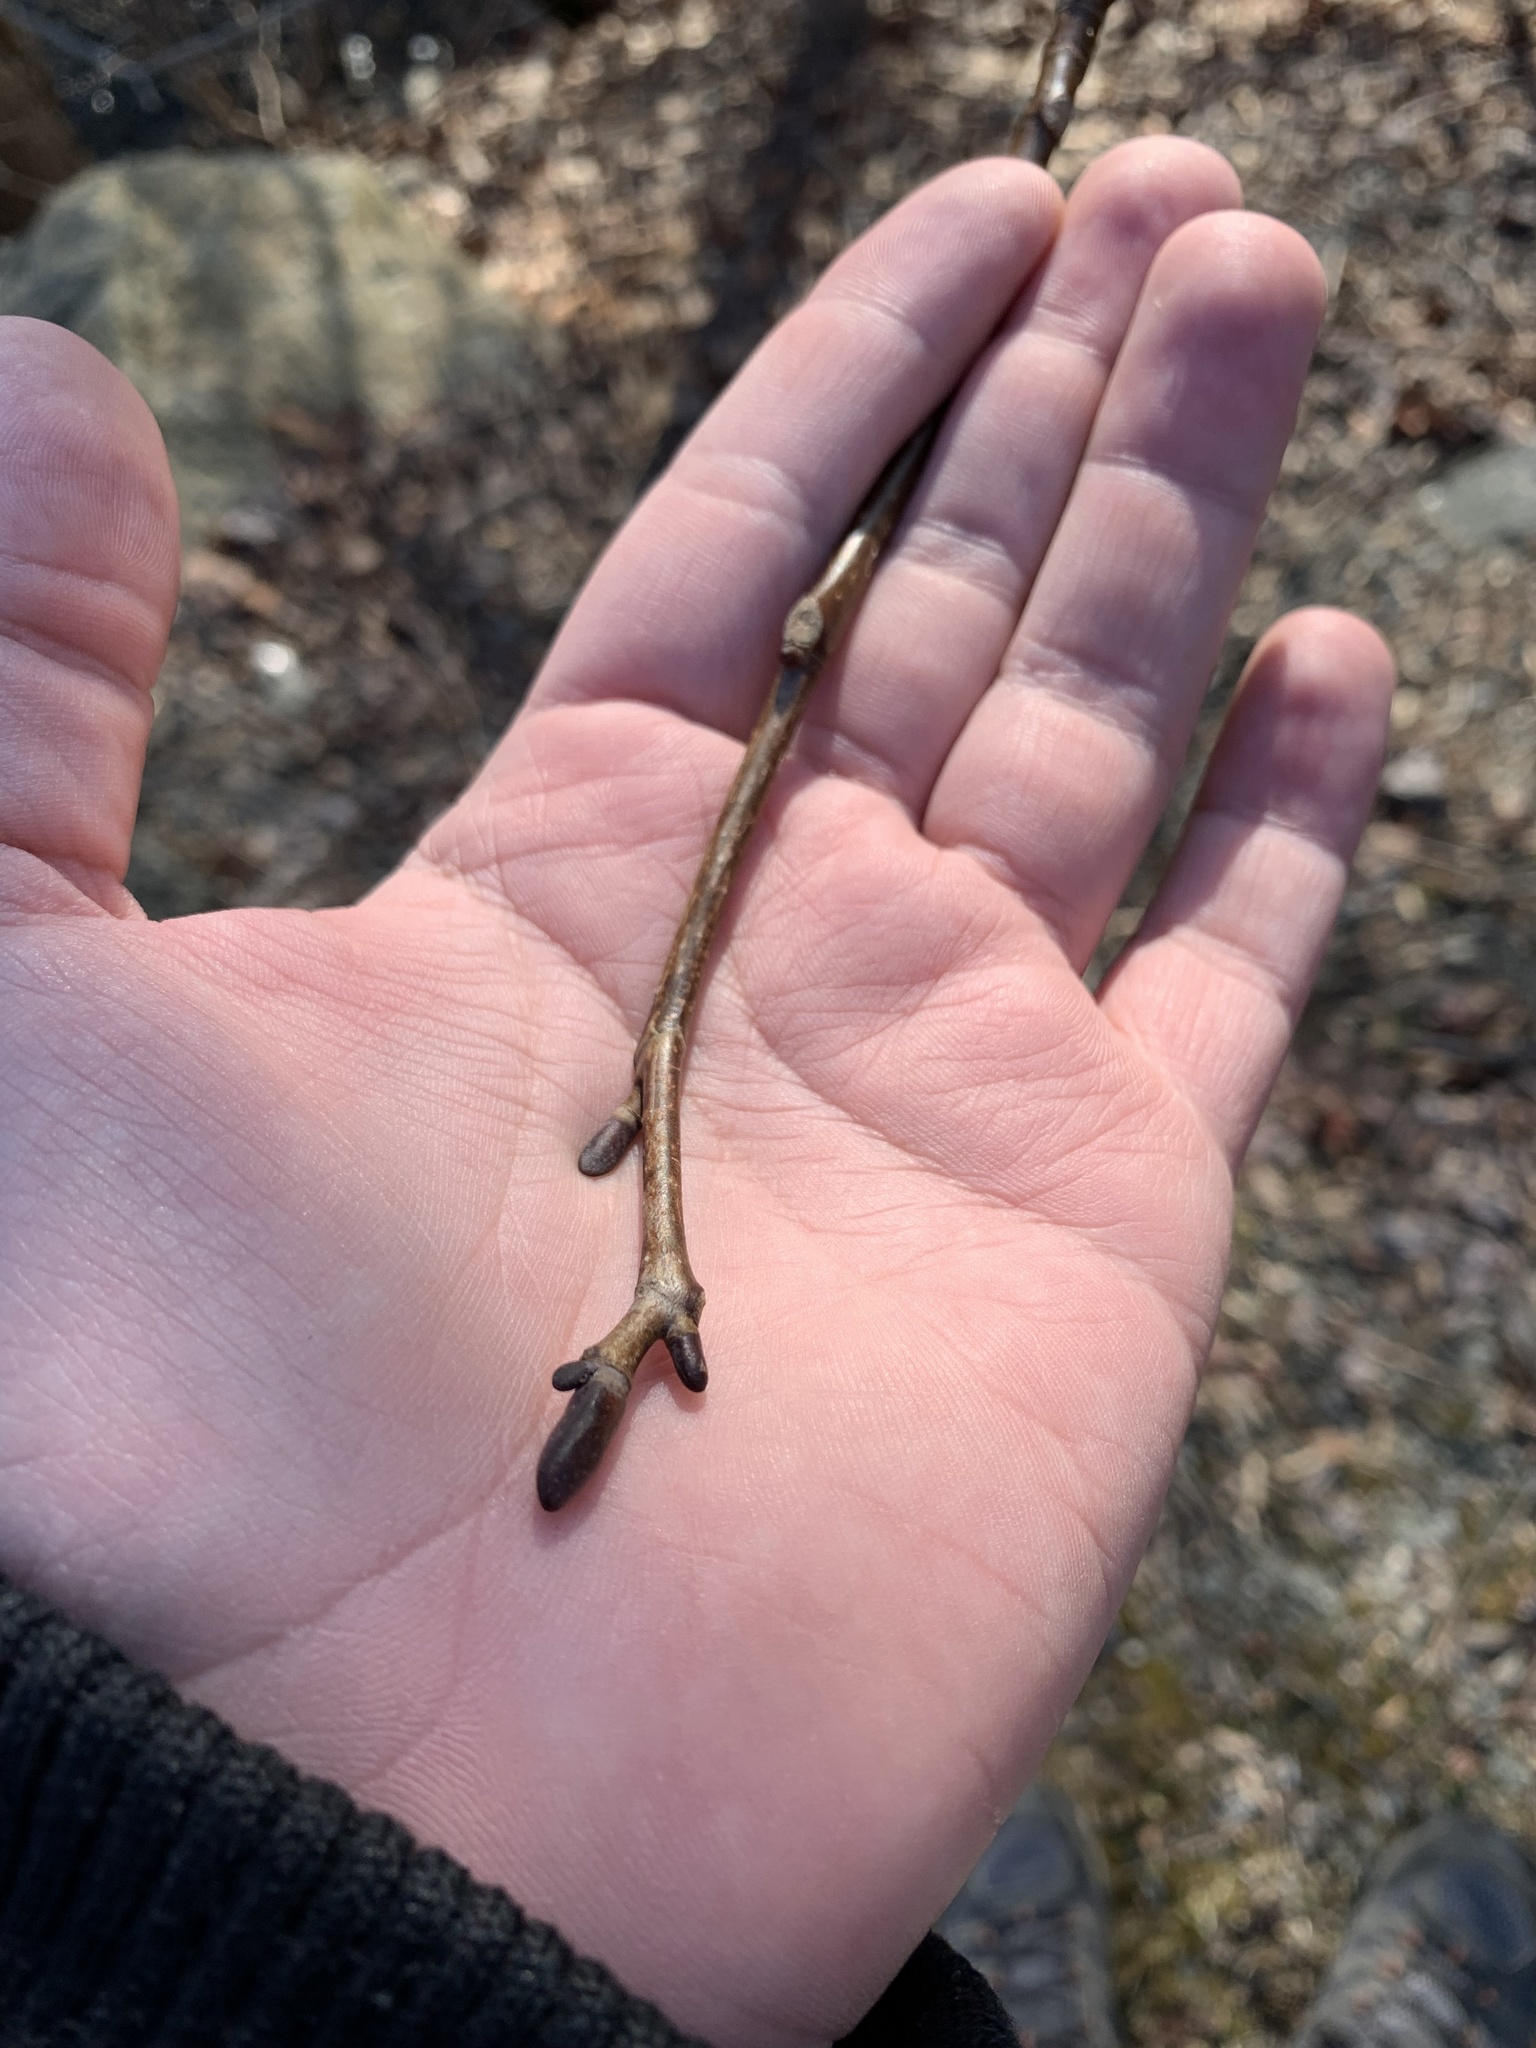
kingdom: Plantae
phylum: Tracheophyta
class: Magnoliopsida
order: Magnoliales
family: Magnoliaceae
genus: Liriodendron
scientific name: Liriodendron tulipifera
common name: Tulip tree
